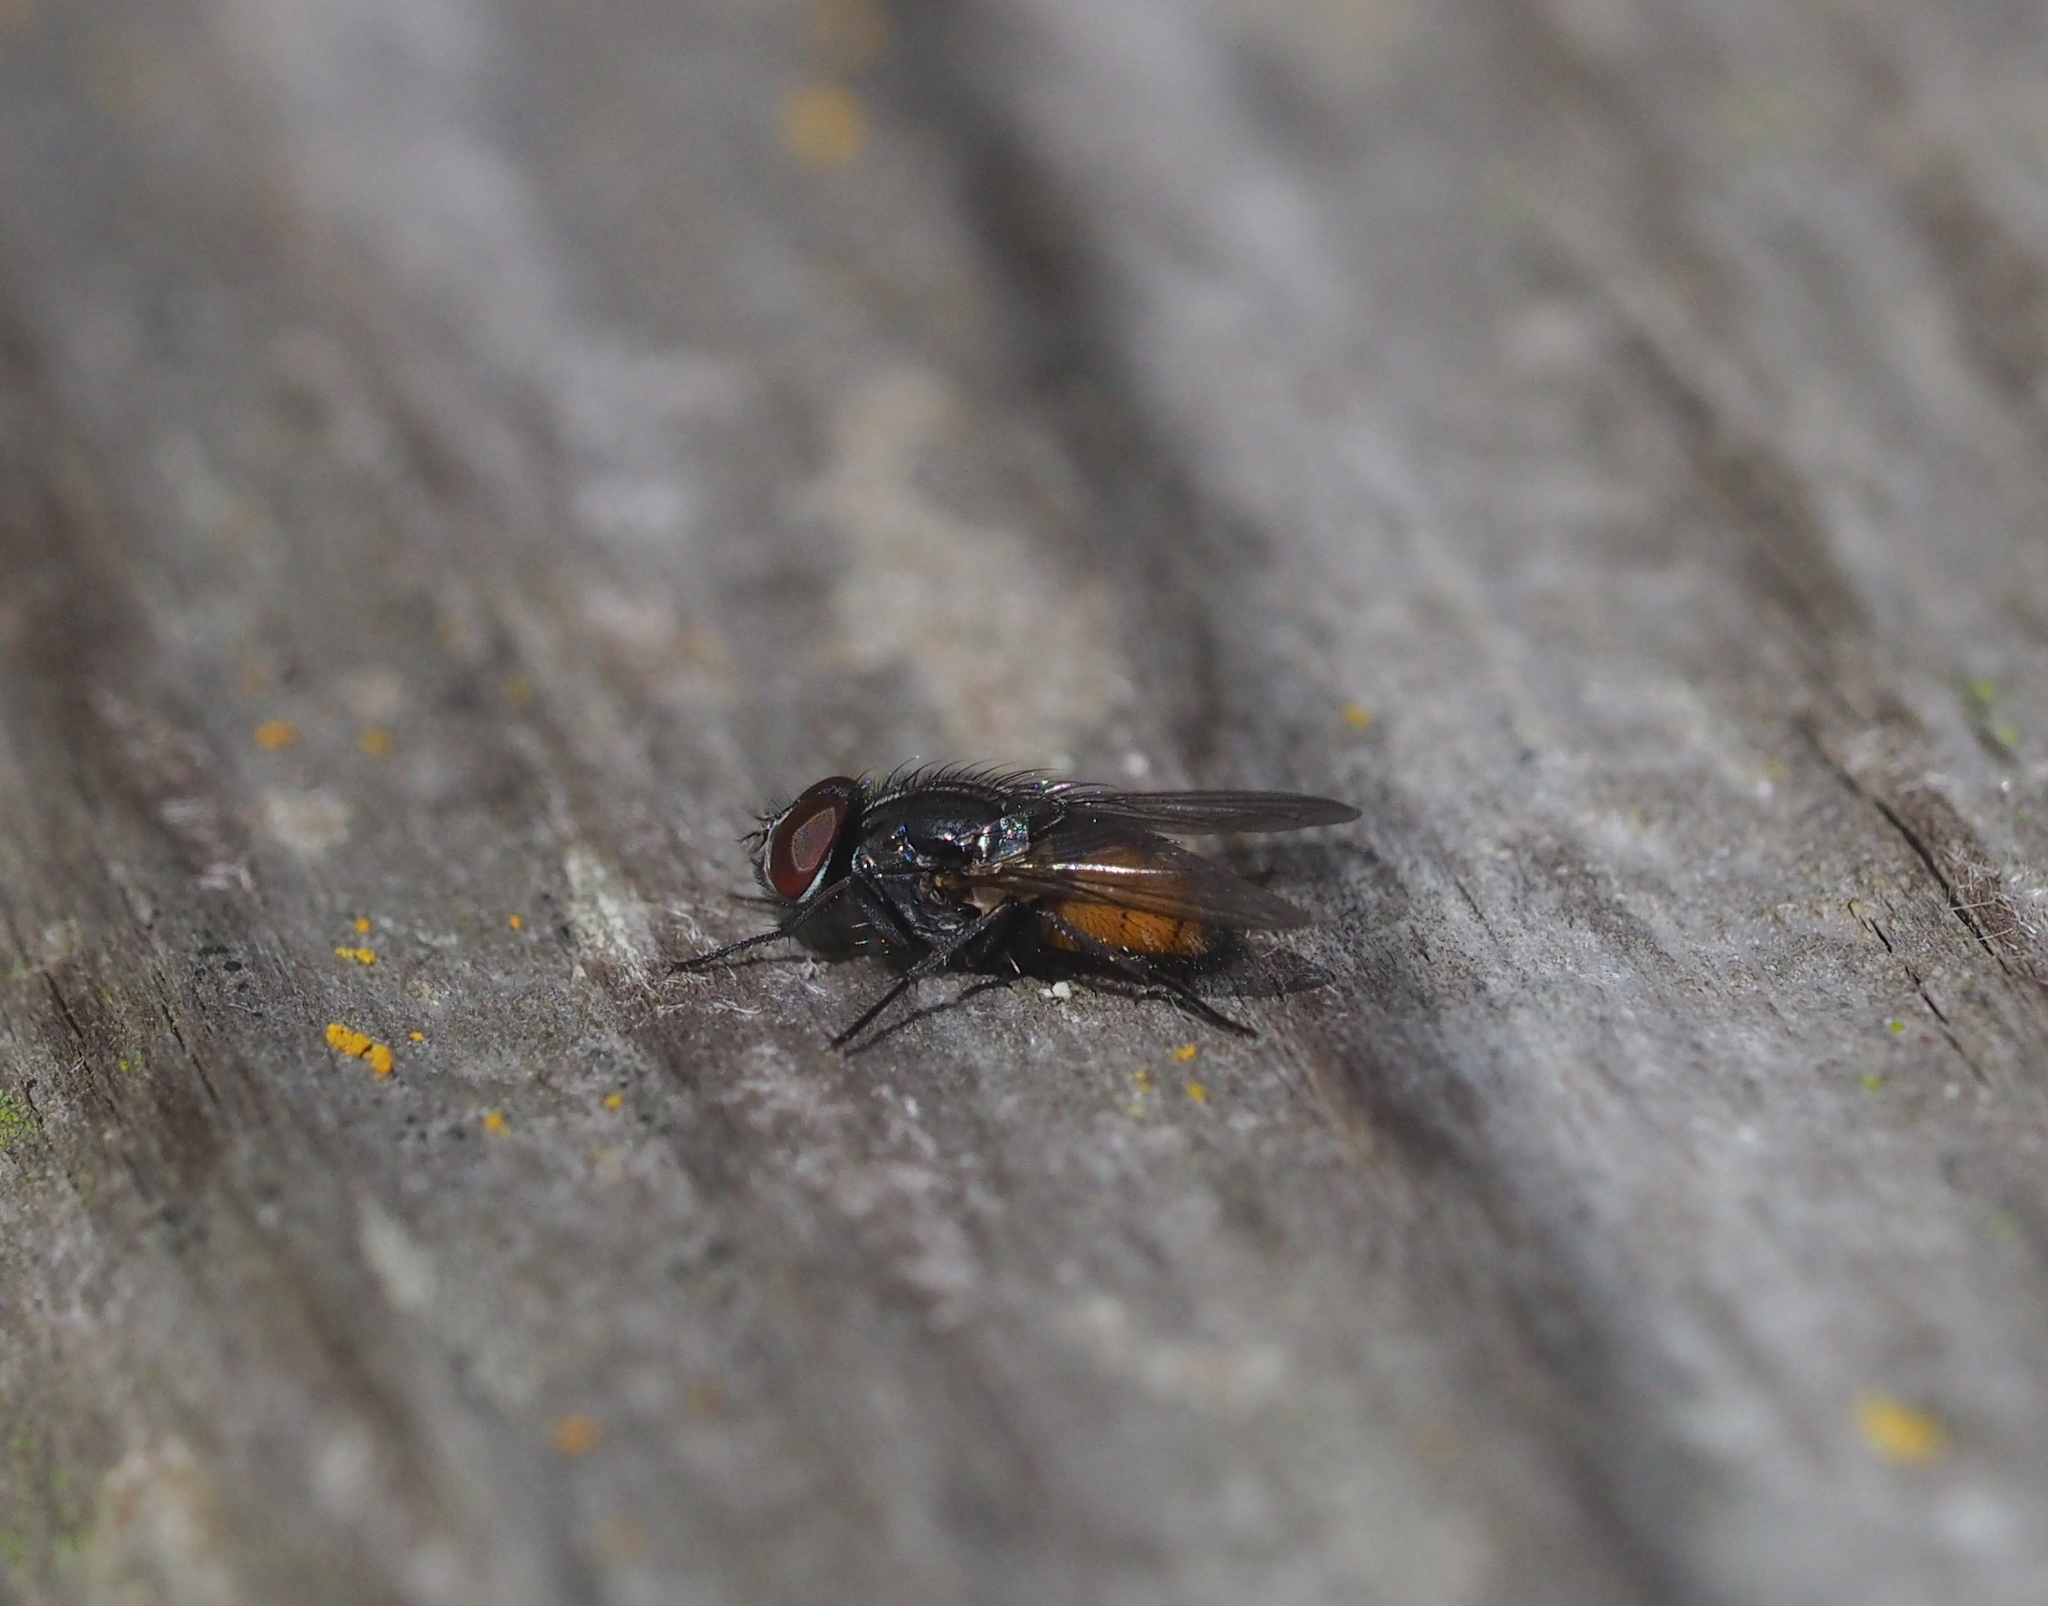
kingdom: Animalia
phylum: Arthropoda
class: Insecta
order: Diptera
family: Muscidae
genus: Musca
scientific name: Musca autumnalis
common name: Face fly
